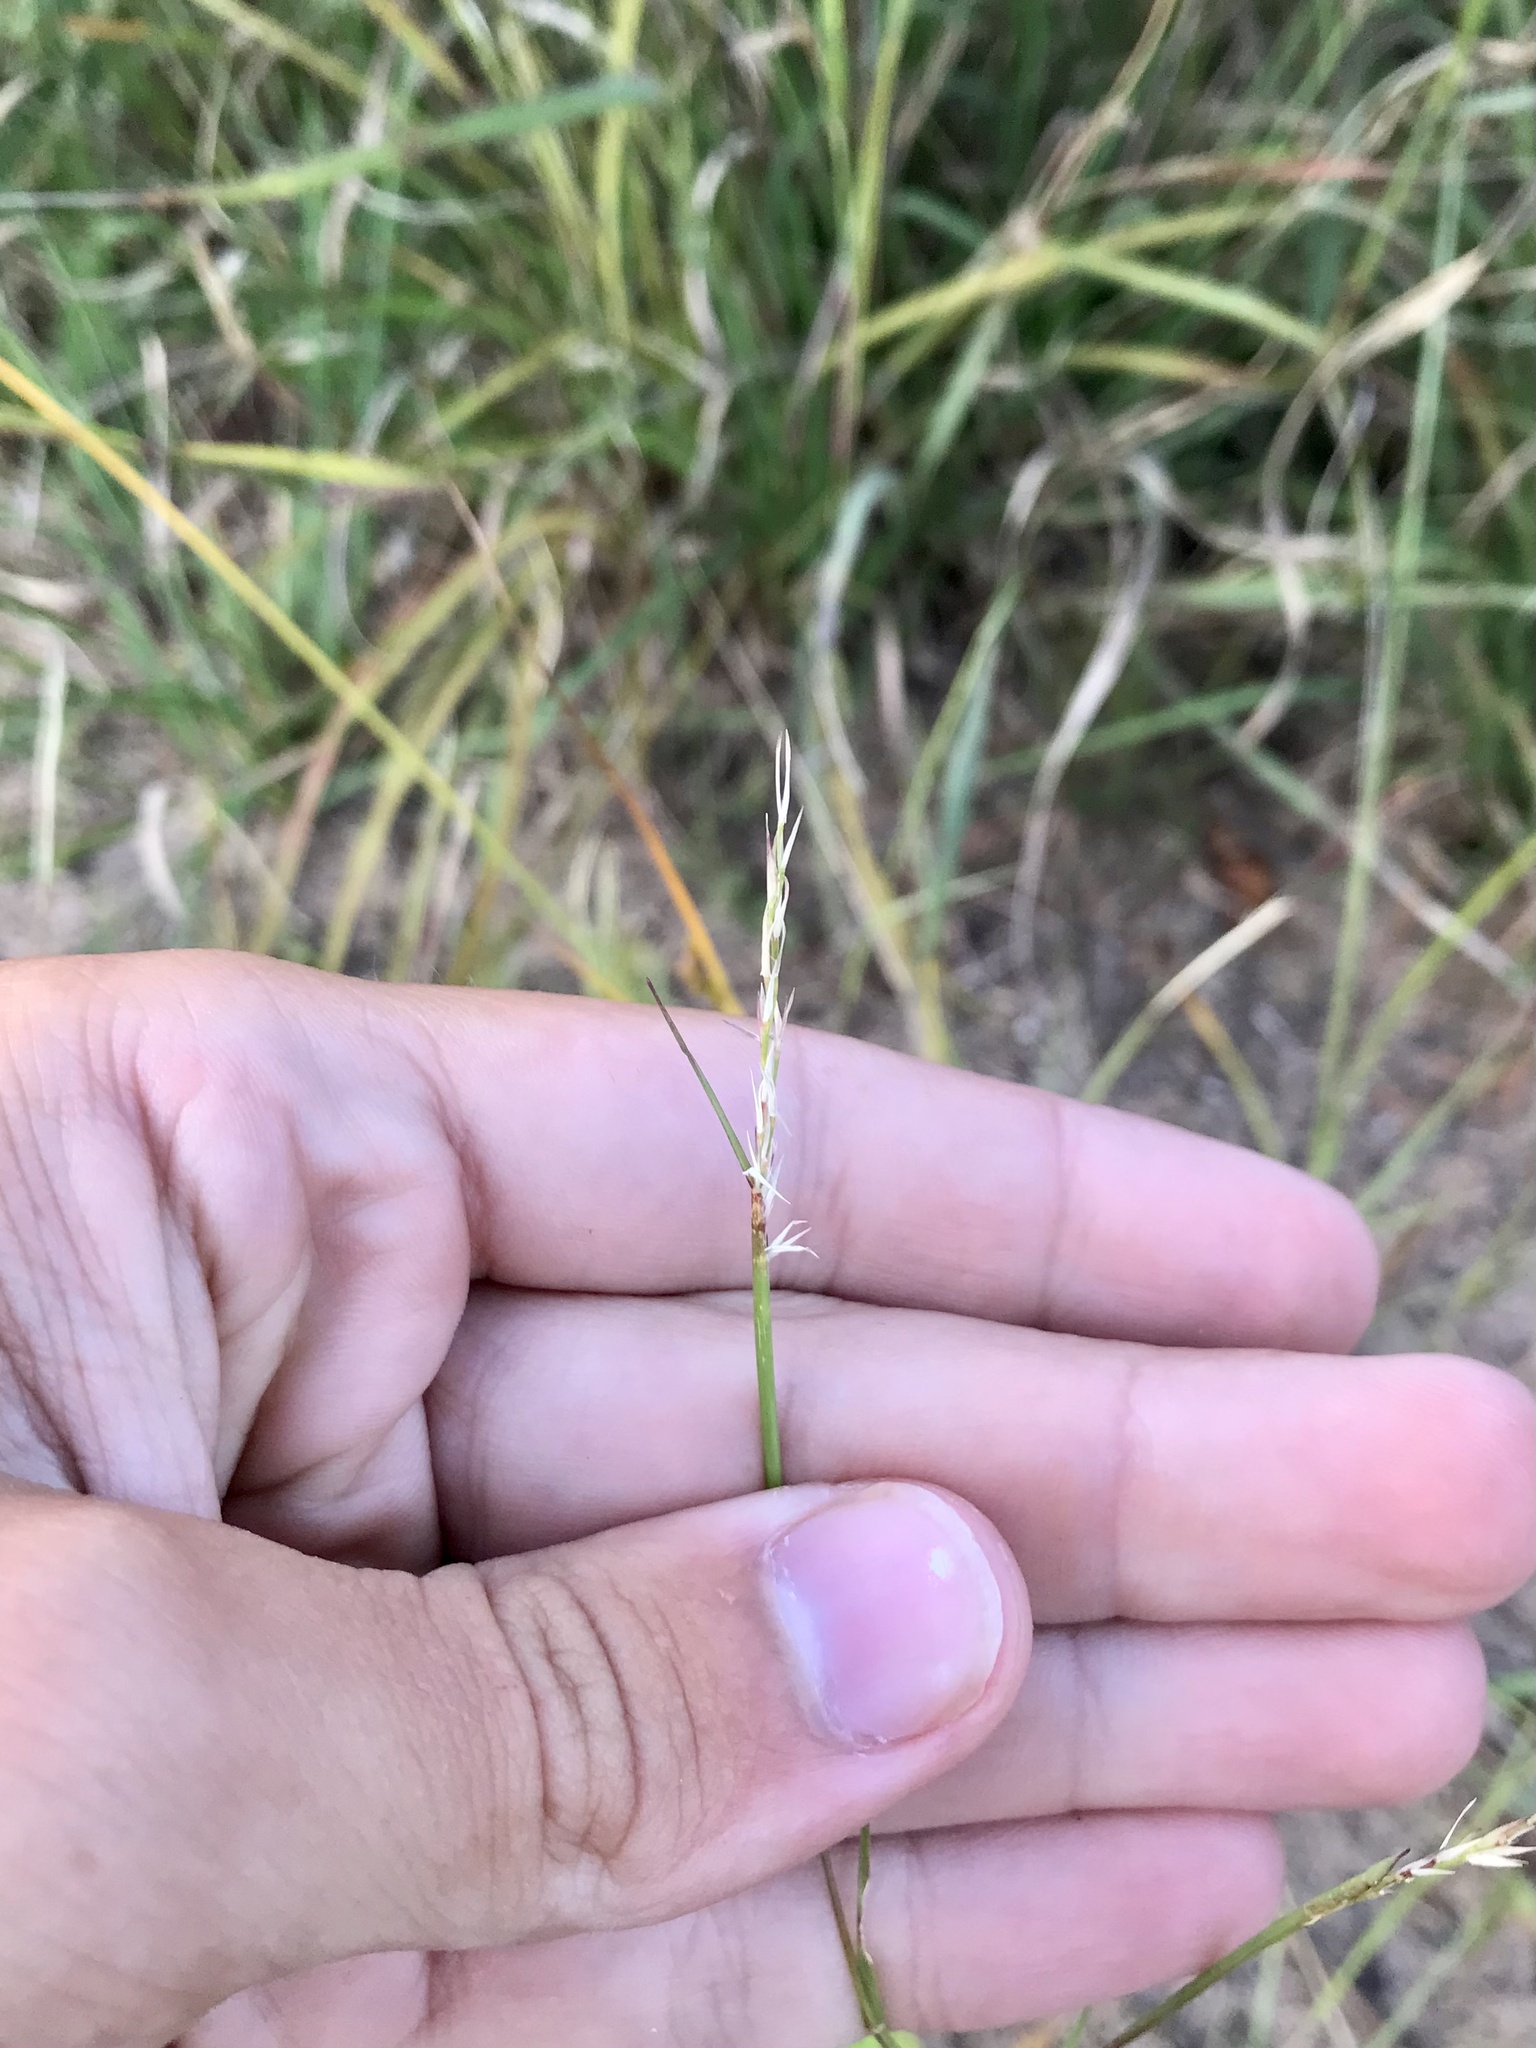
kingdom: Plantae
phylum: Tracheophyta
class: Liliopsida
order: Poales
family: Poaceae
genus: Sporobolus
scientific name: Sporobolus vaginiflorus
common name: Poverty dropseed
